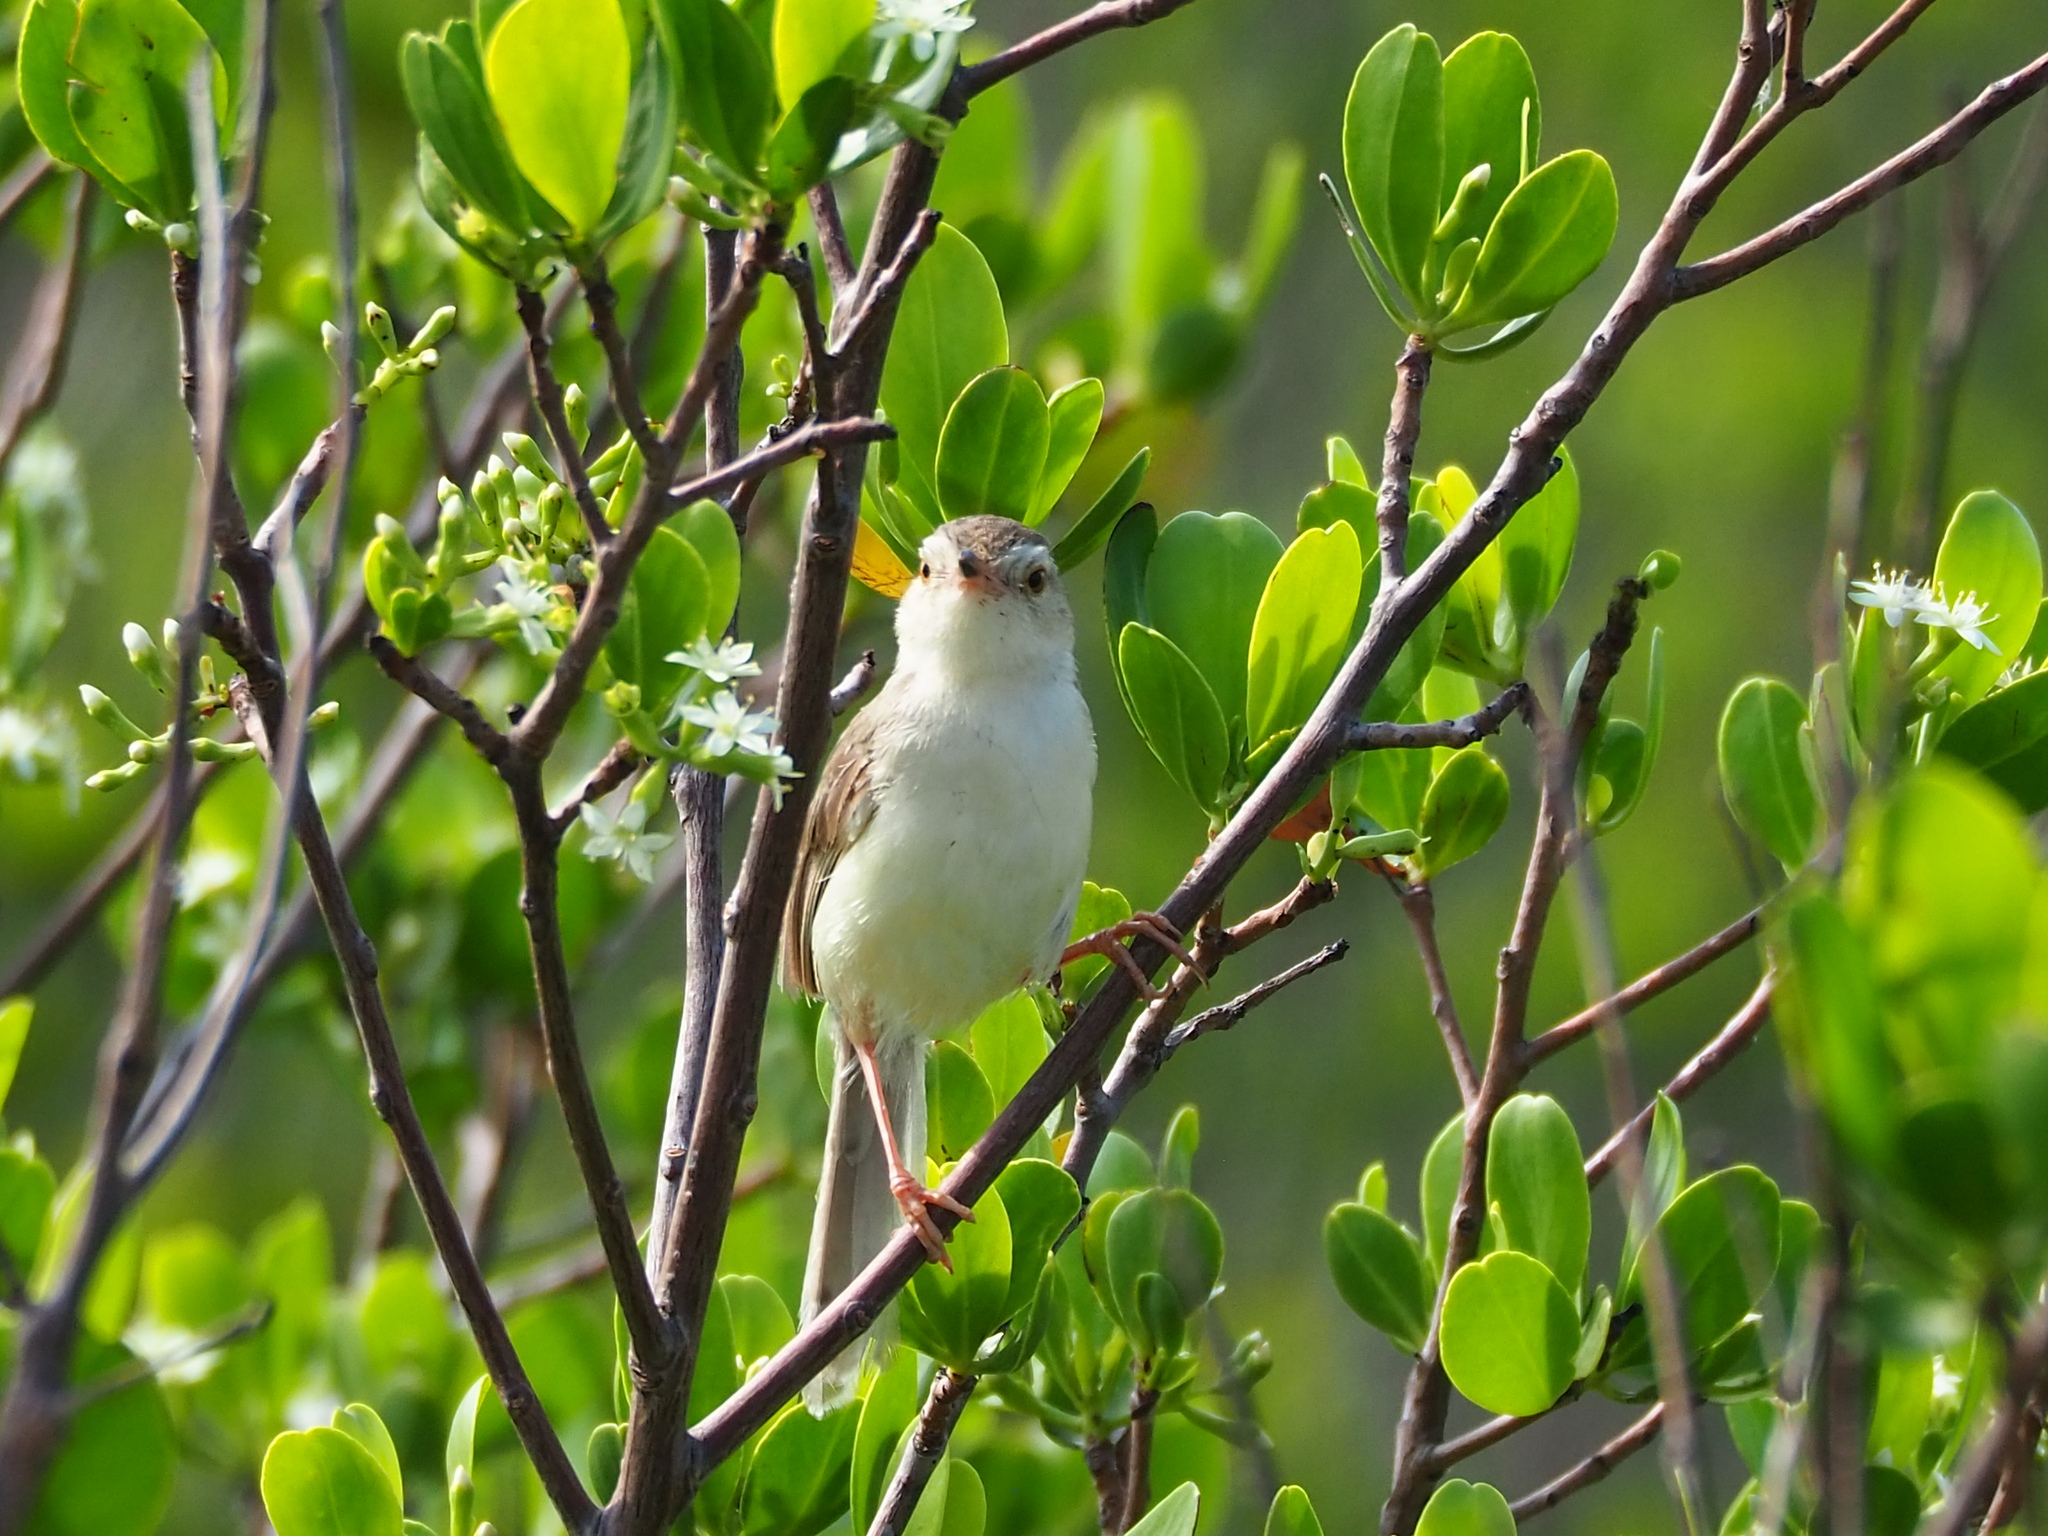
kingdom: Animalia
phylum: Chordata
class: Aves
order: Passeriformes
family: Cisticolidae
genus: Prinia
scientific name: Prinia inornata
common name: Plain prinia
